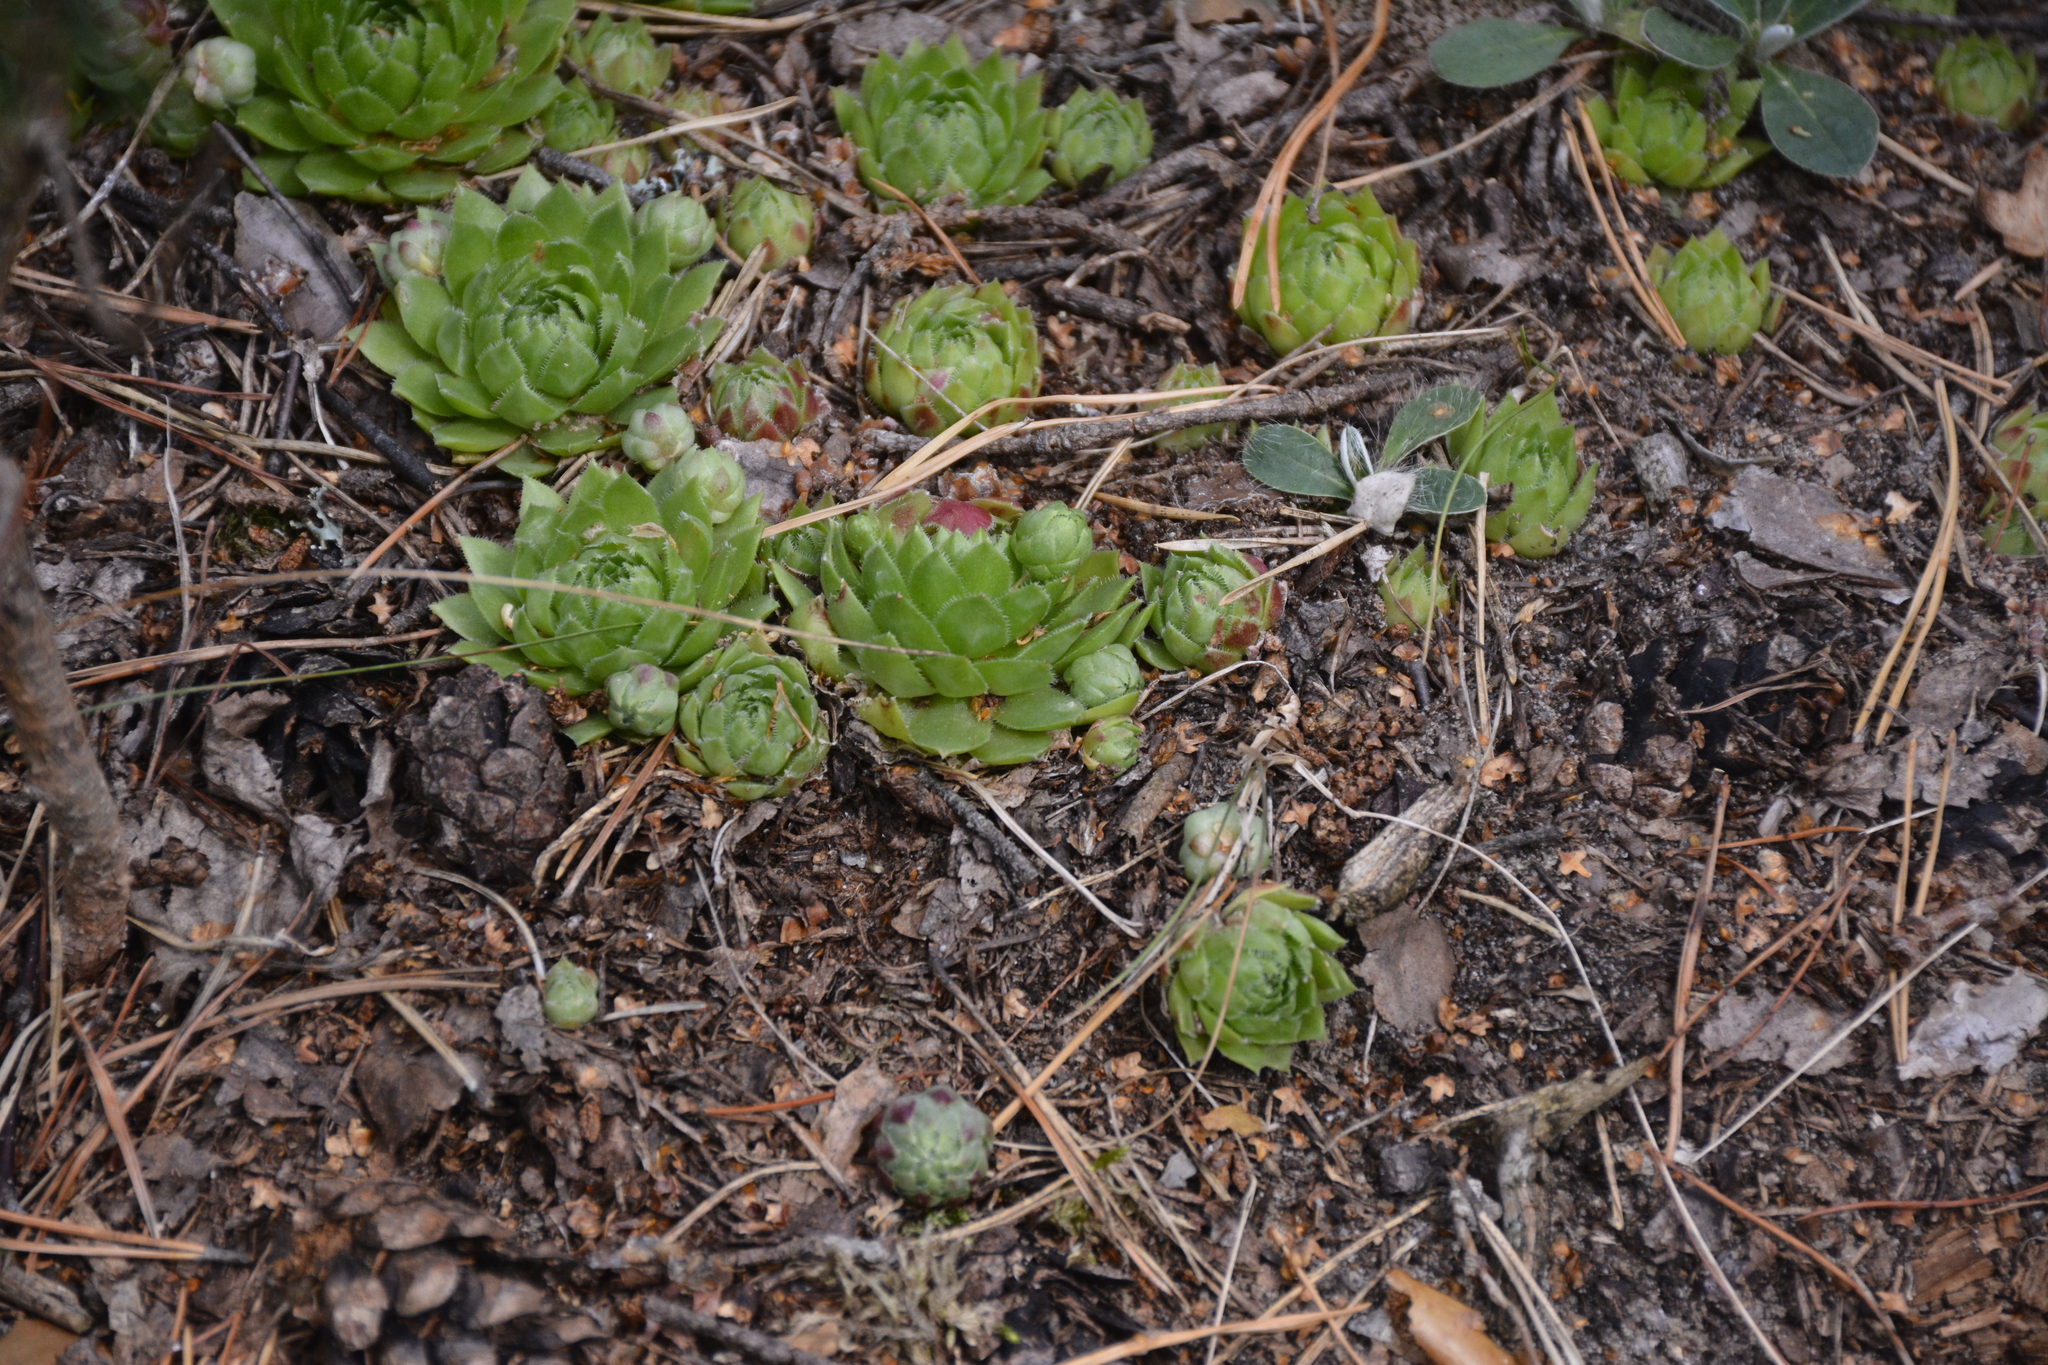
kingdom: Plantae
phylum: Tracheophyta
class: Magnoliopsida
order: Saxifragales
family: Crassulaceae
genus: Sempervivum
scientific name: Sempervivum globiferum
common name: Rolling hen-and-chicks
